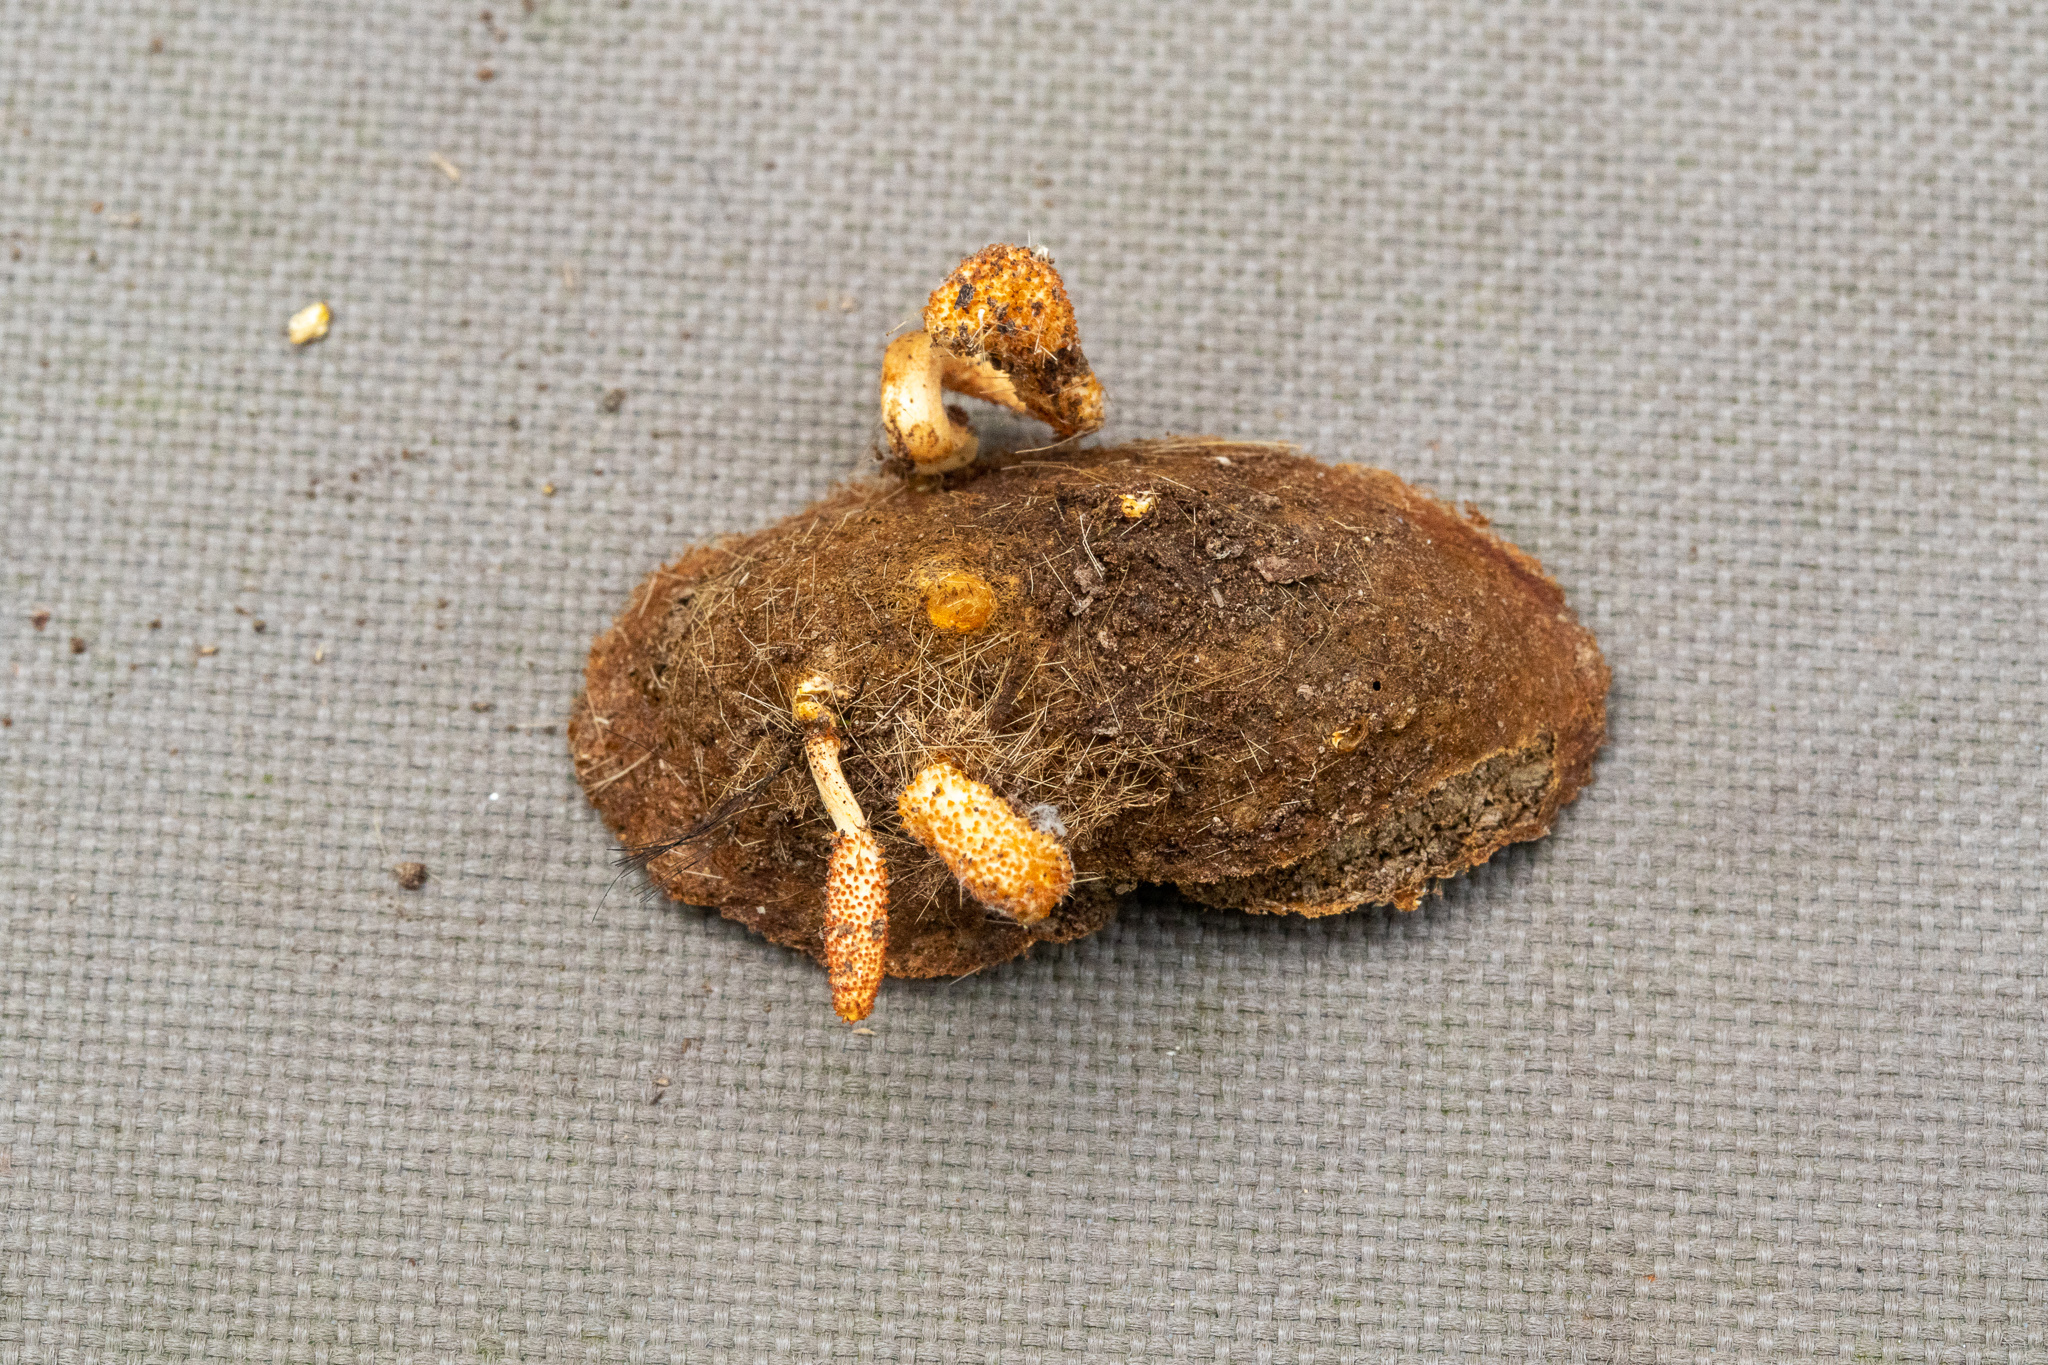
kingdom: Fungi
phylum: Ascomycota
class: Sordariomycetes
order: Hypocreales
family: Cordycipitaceae
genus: Cordyceps
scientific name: Cordyceps militaris
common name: Scarlet caterpillar fungus
